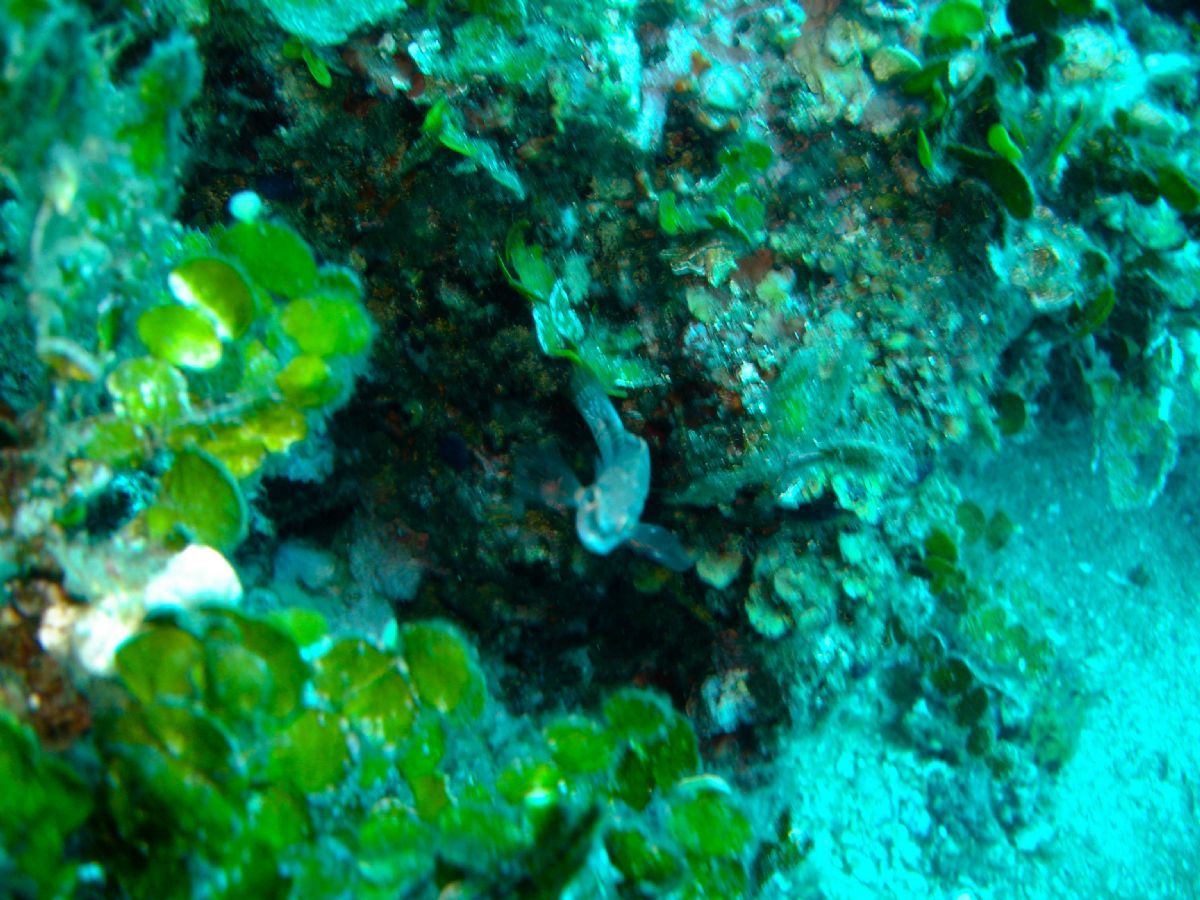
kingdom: Plantae
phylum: Chlorophyta
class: Ulvophyceae
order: Bryopsidales
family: Halimedaceae
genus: Halimeda
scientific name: Halimeda tuna
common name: Stalked lettuce leaf algae
